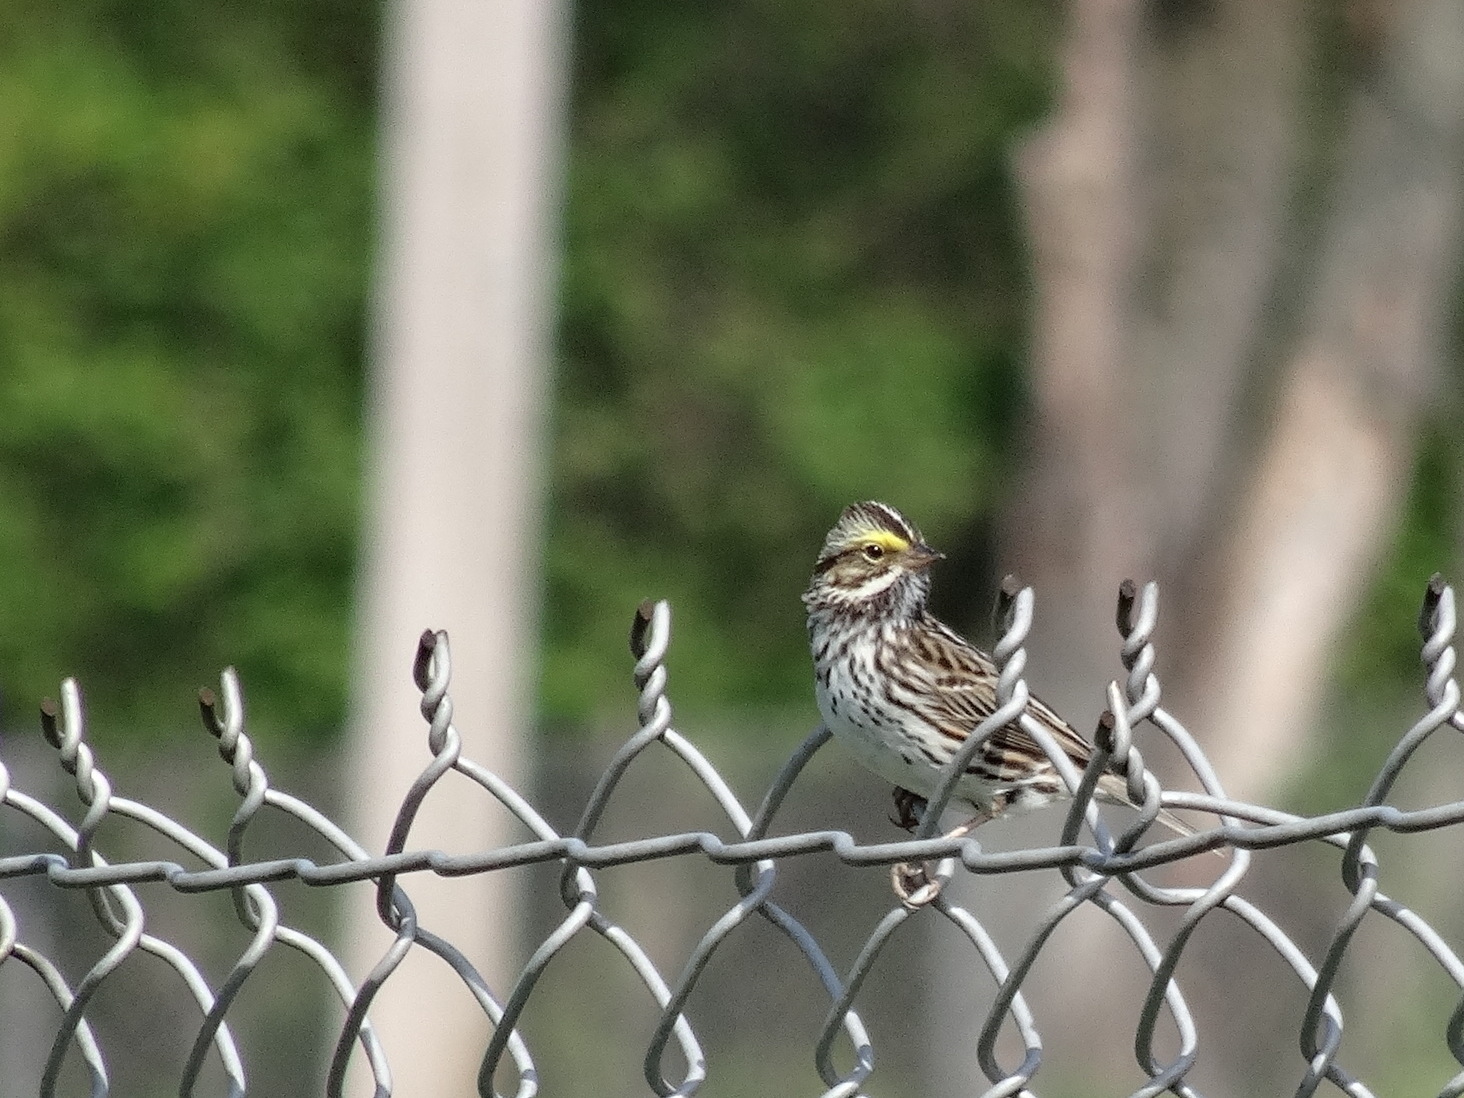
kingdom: Animalia
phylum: Chordata
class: Aves
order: Passeriformes
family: Passerellidae
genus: Passerculus
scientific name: Passerculus sandwichensis
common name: Savannah sparrow
